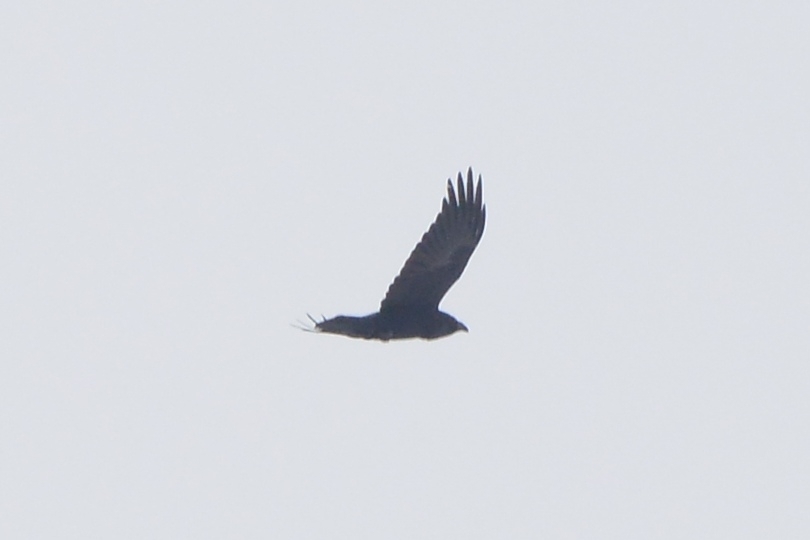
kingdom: Animalia
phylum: Chordata
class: Aves
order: Passeriformes
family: Corvidae
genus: Corvus
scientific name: Corvus corax
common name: Common raven
